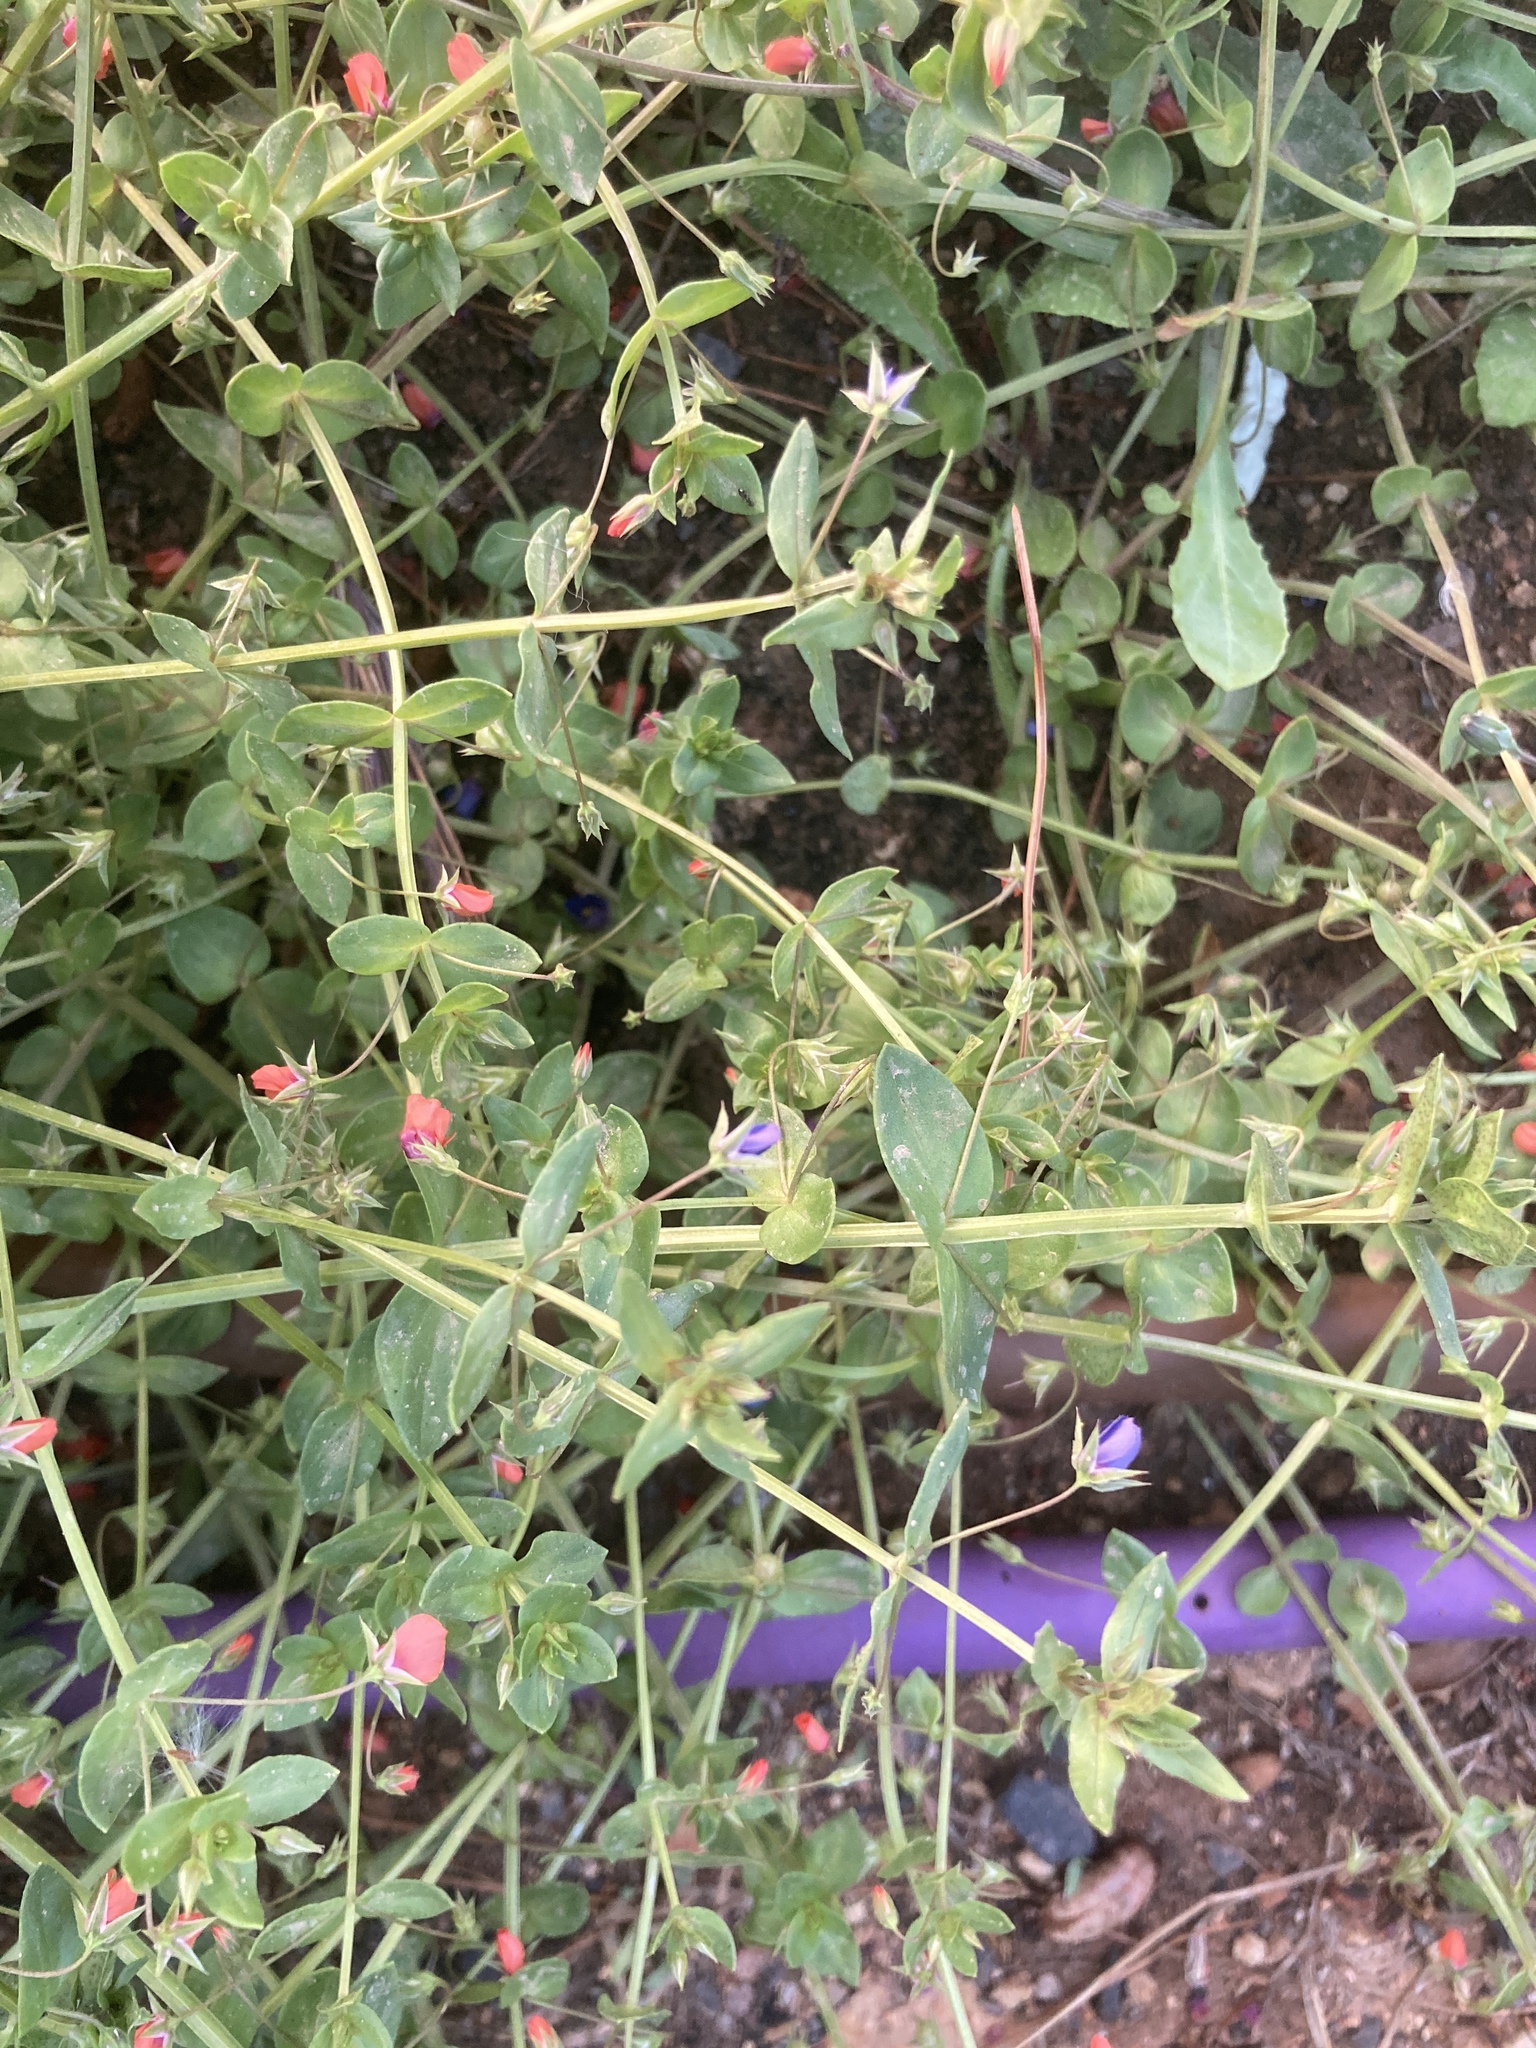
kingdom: Plantae
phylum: Tracheophyta
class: Magnoliopsida
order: Ericales
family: Primulaceae
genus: Lysimachia
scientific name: Lysimachia arvensis
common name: Scarlet pimpernel
